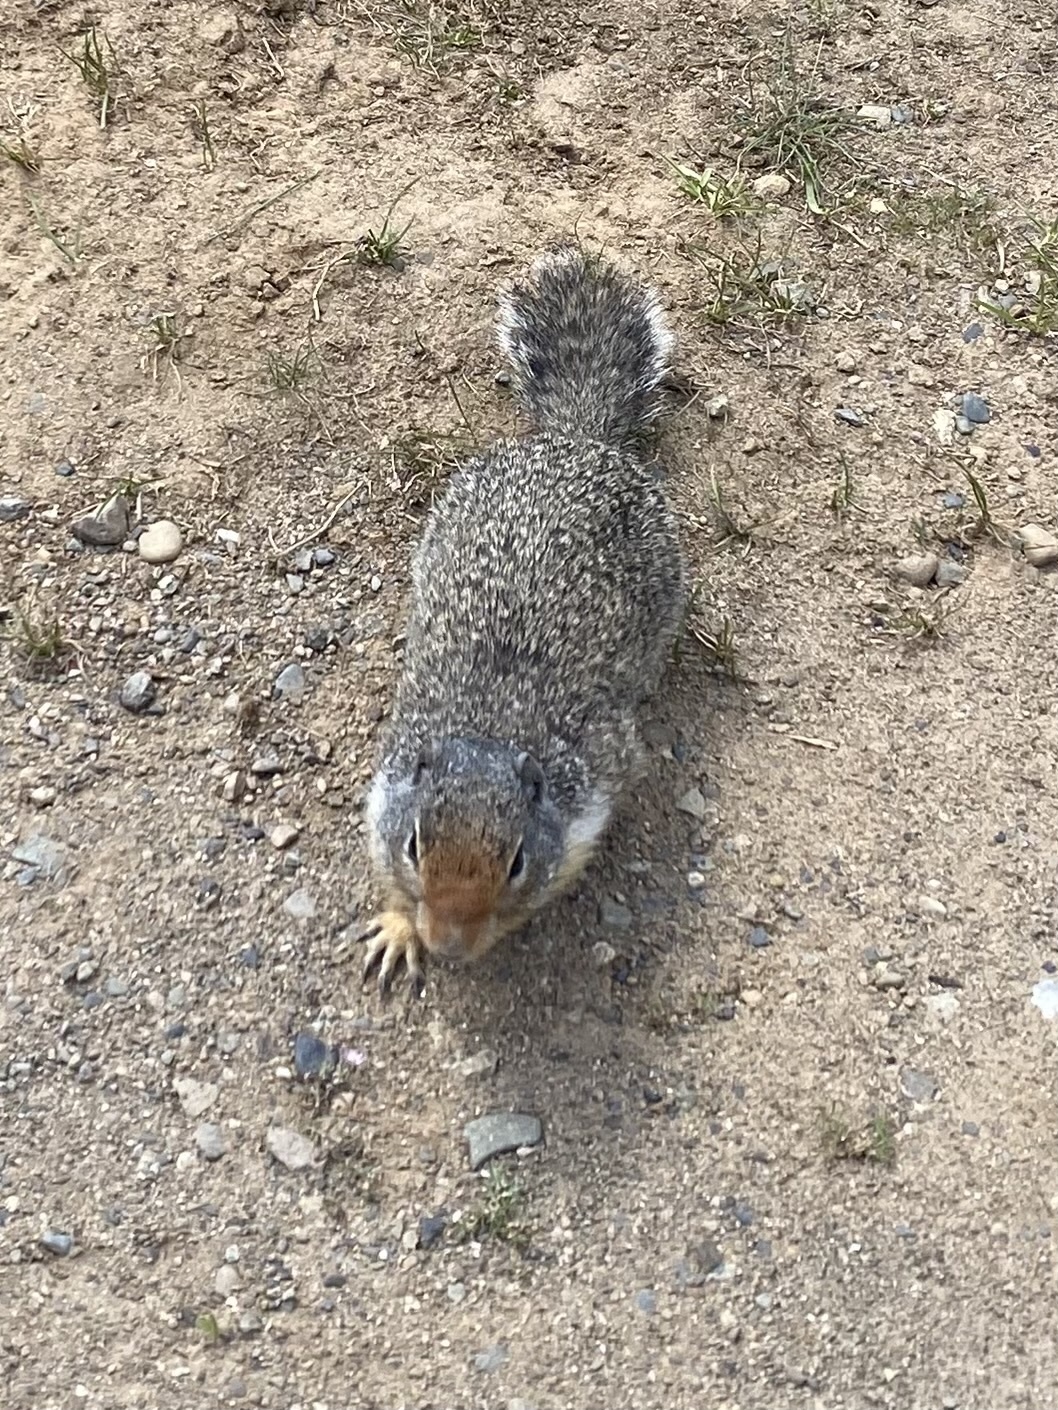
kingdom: Animalia
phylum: Chordata
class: Mammalia
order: Rodentia
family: Sciuridae
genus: Urocitellus
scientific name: Urocitellus columbianus
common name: Columbian ground squirrel
